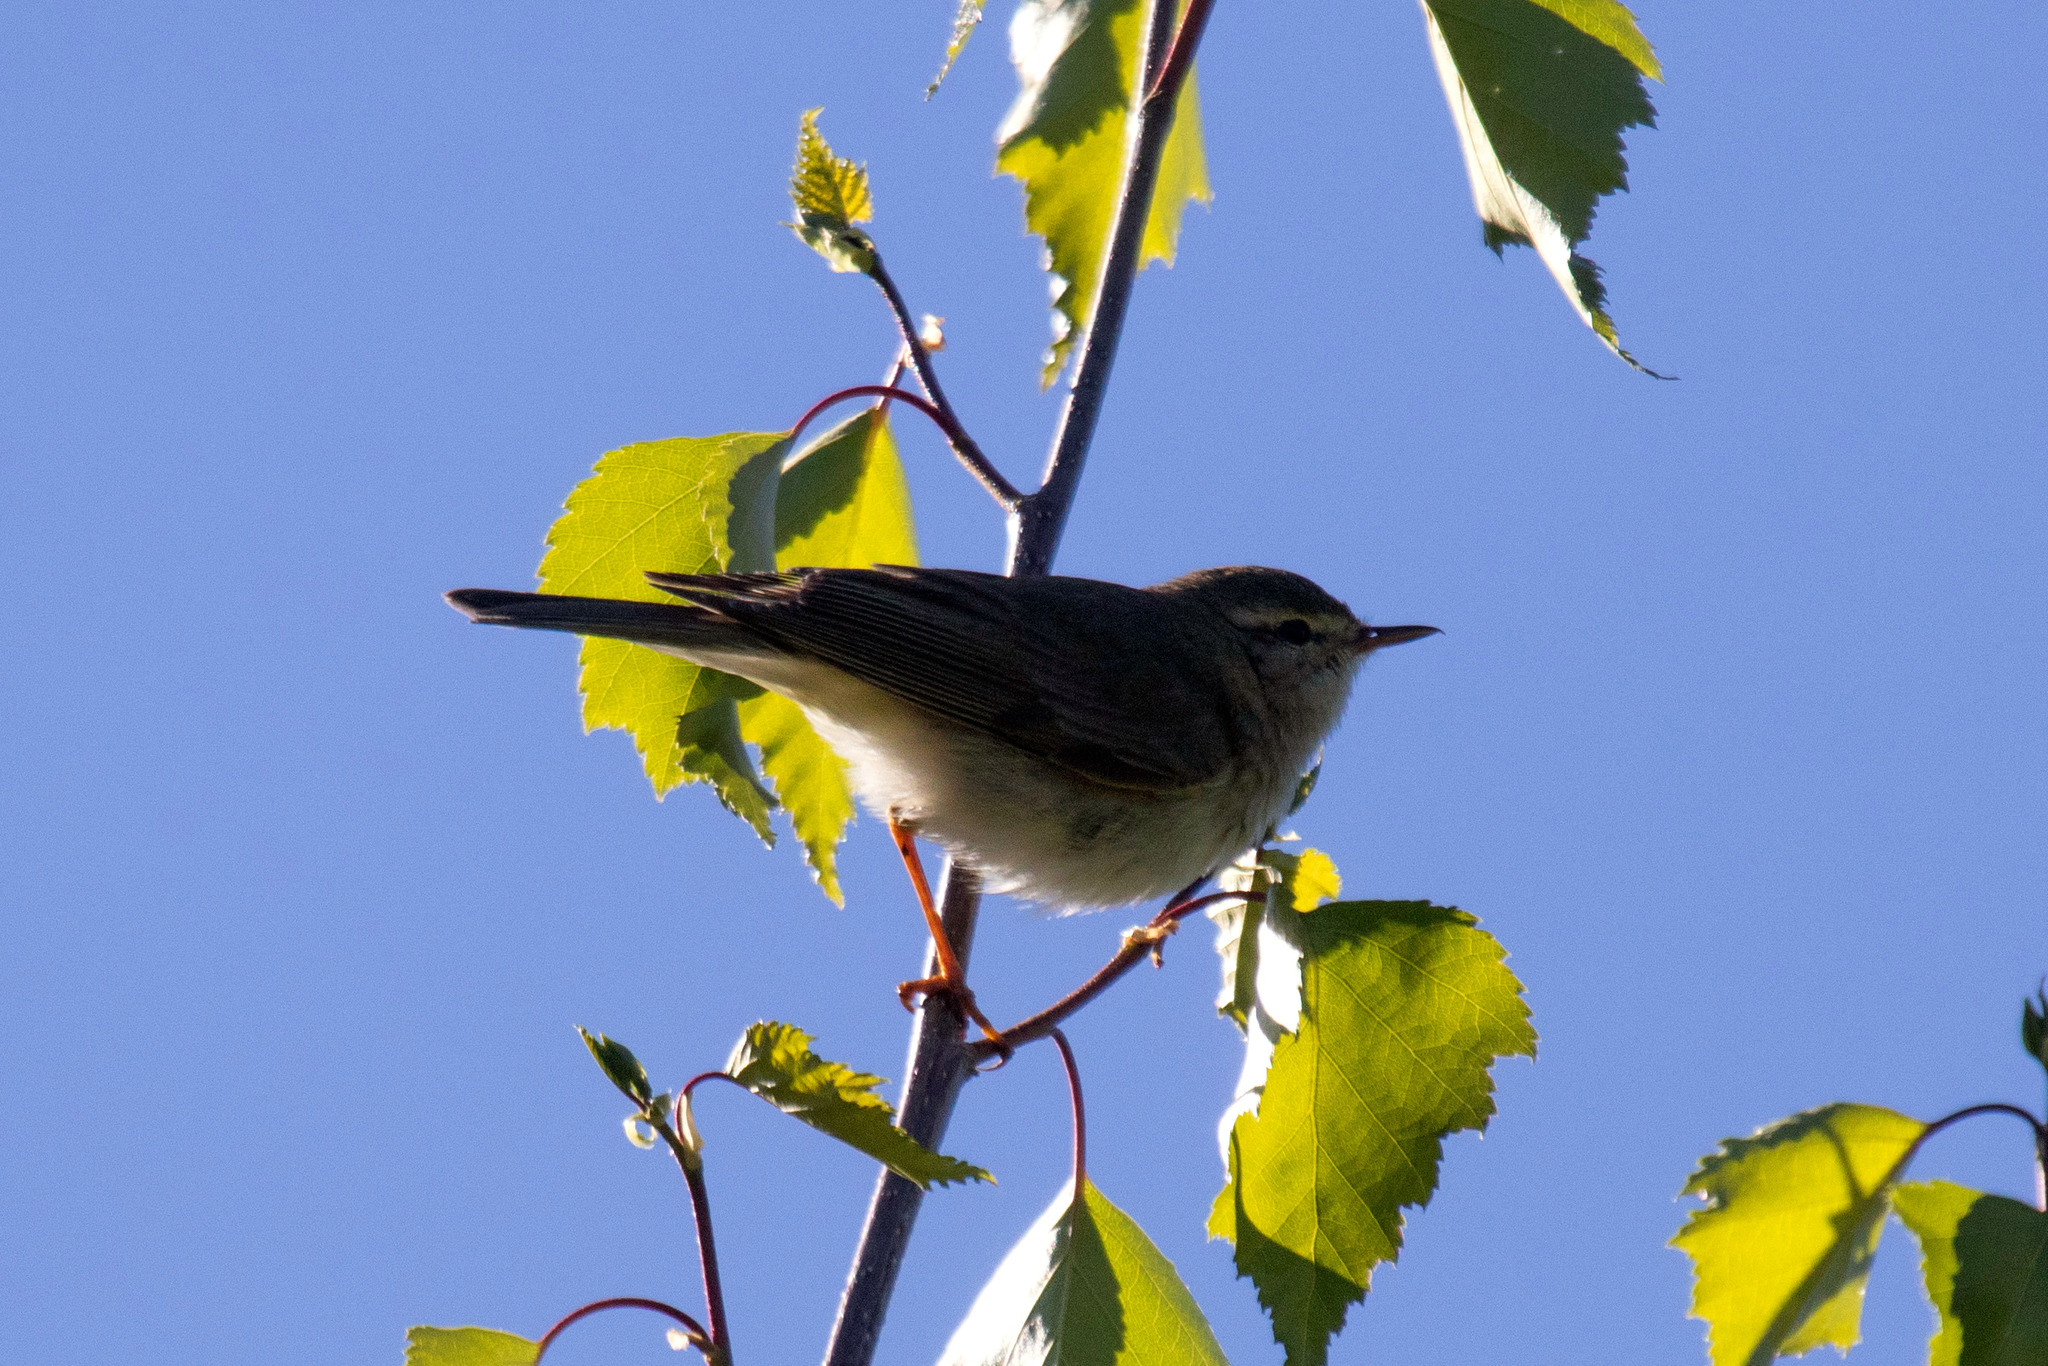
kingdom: Animalia
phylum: Chordata
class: Aves
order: Passeriformes
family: Phylloscopidae
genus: Phylloscopus
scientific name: Phylloscopus trochilus
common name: Willow warbler
